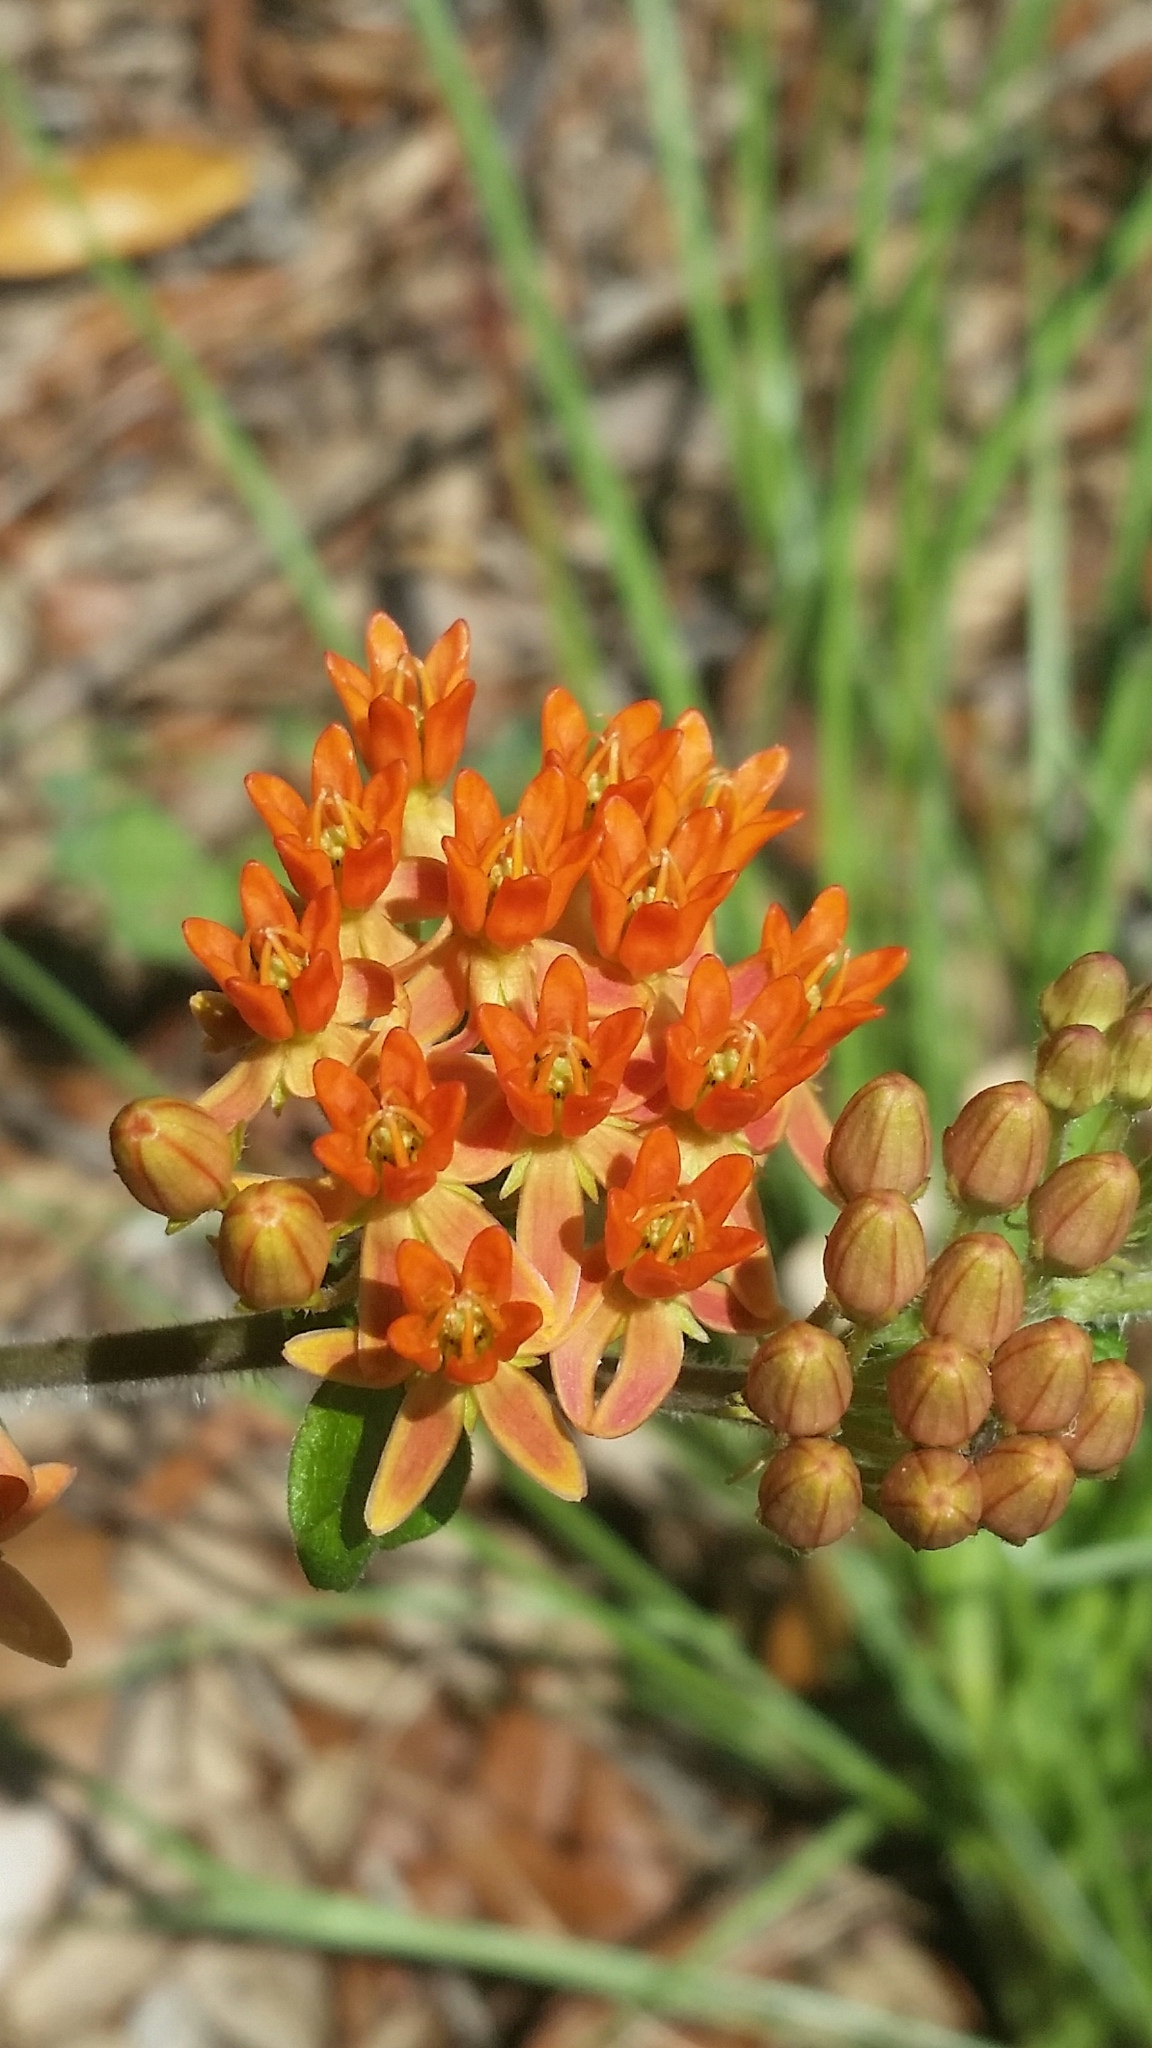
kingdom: Plantae
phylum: Tracheophyta
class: Magnoliopsida
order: Gentianales
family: Apocynaceae
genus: Asclepias
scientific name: Asclepias tuberosa
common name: Butterfly milkweed
